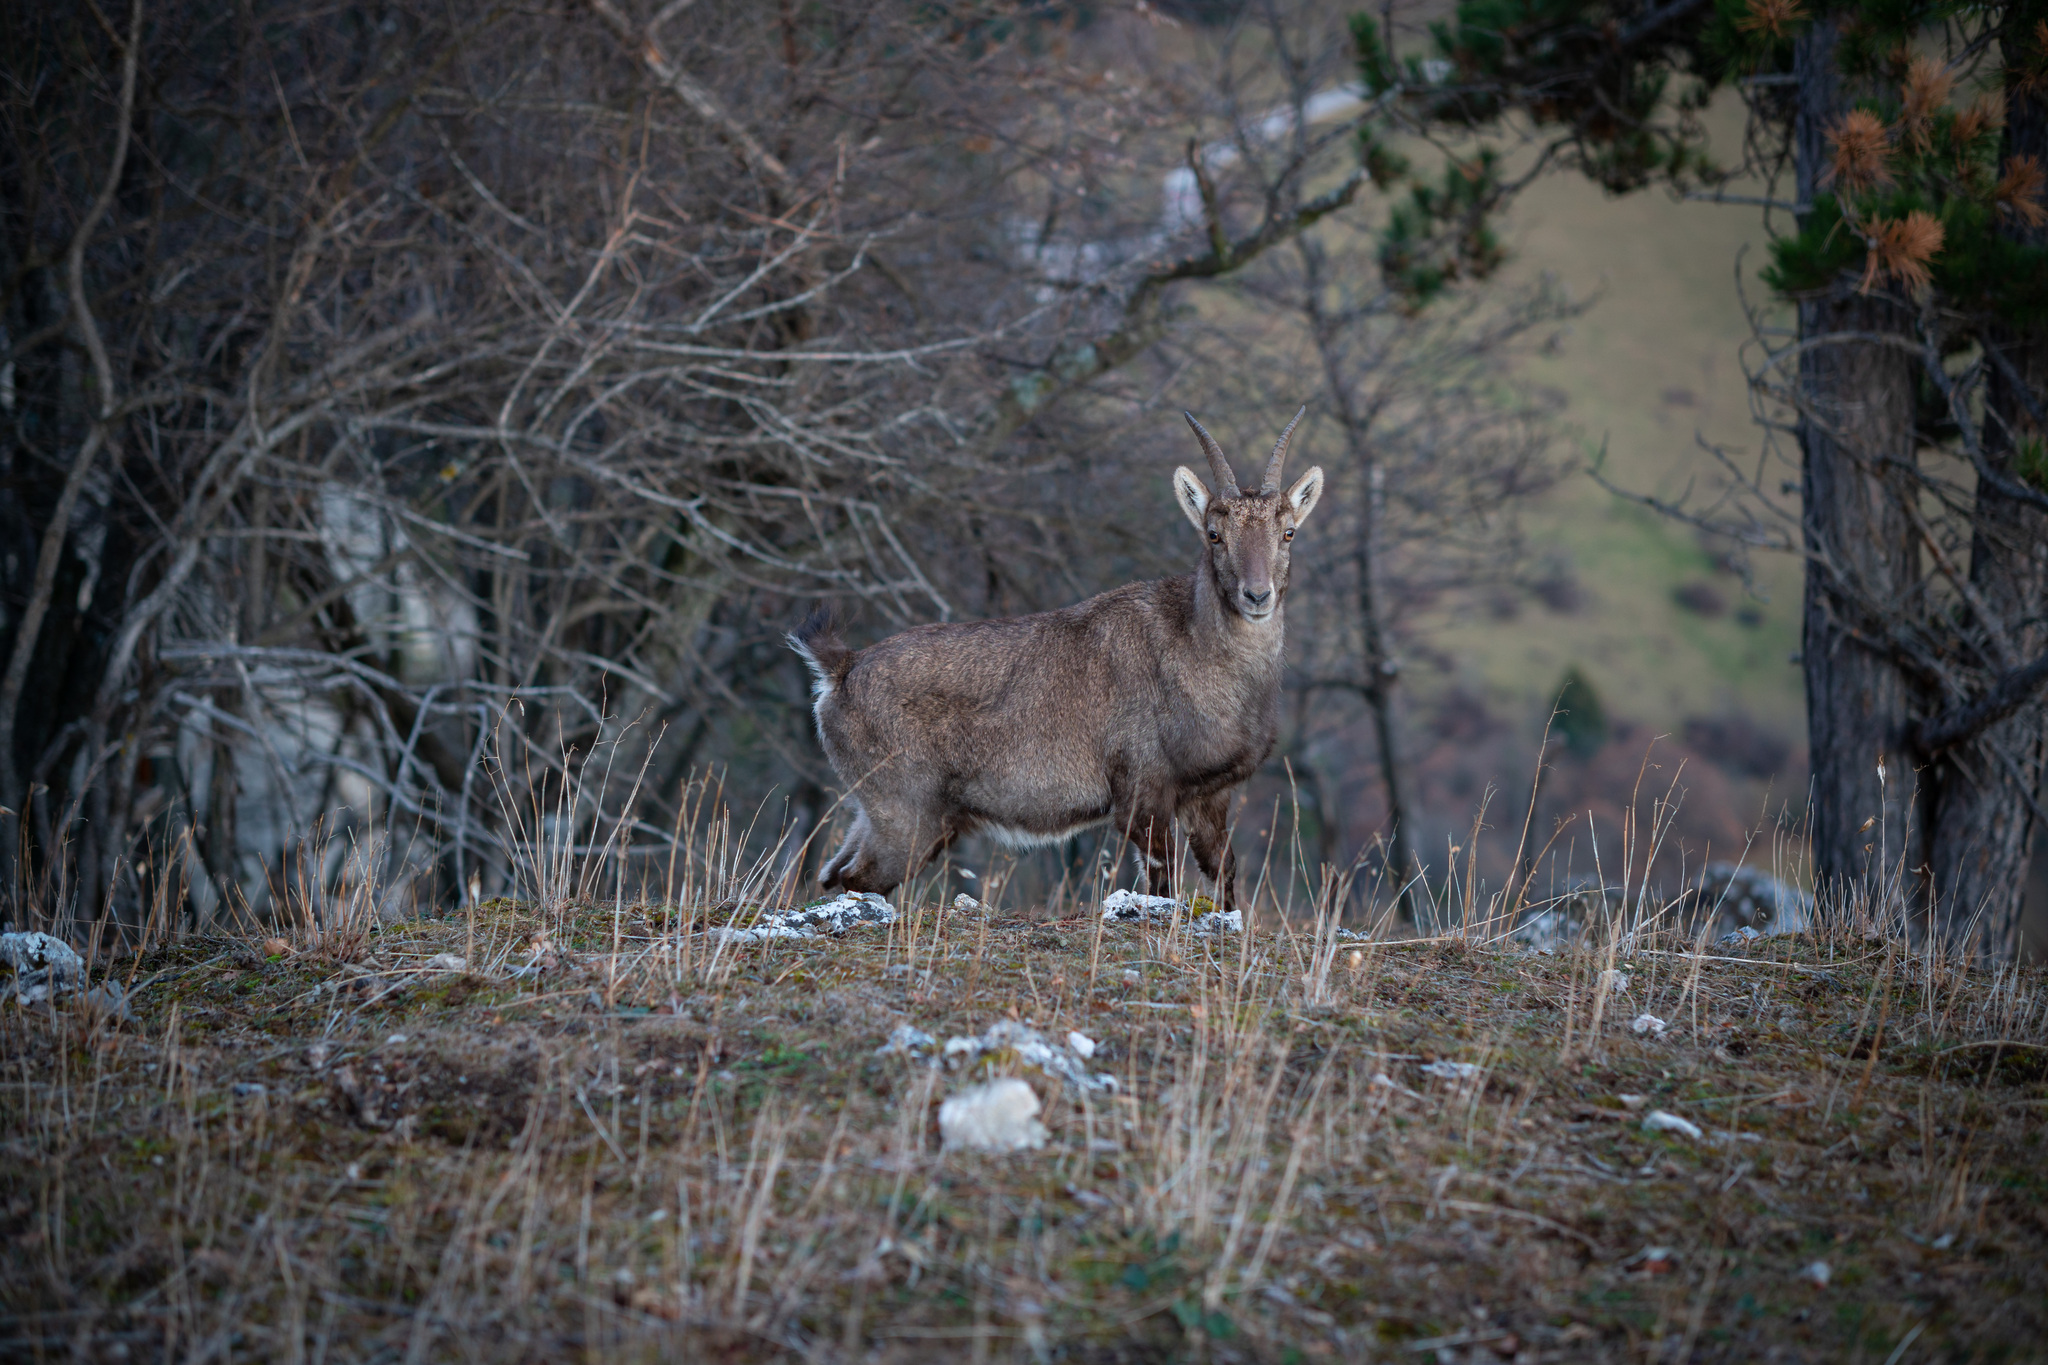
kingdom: Animalia
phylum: Chordata
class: Mammalia
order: Artiodactyla
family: Bovidae
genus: Capra
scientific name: Capra ibex
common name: Alpine ibex
